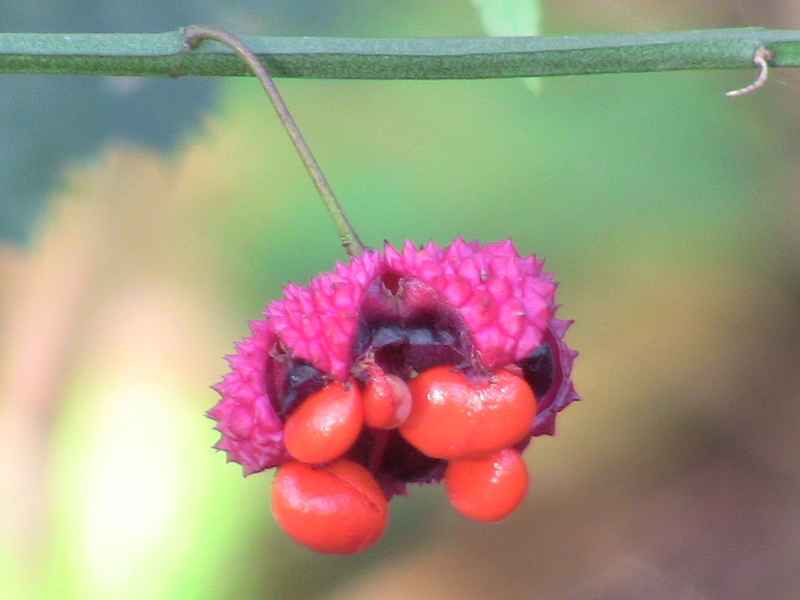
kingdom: Plantae
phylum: Tracheophyta
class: Magnoliopsida
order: Celastrales
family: Celastraceae
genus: Euonymus
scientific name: Euonymus americanus
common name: Bursting-heart
